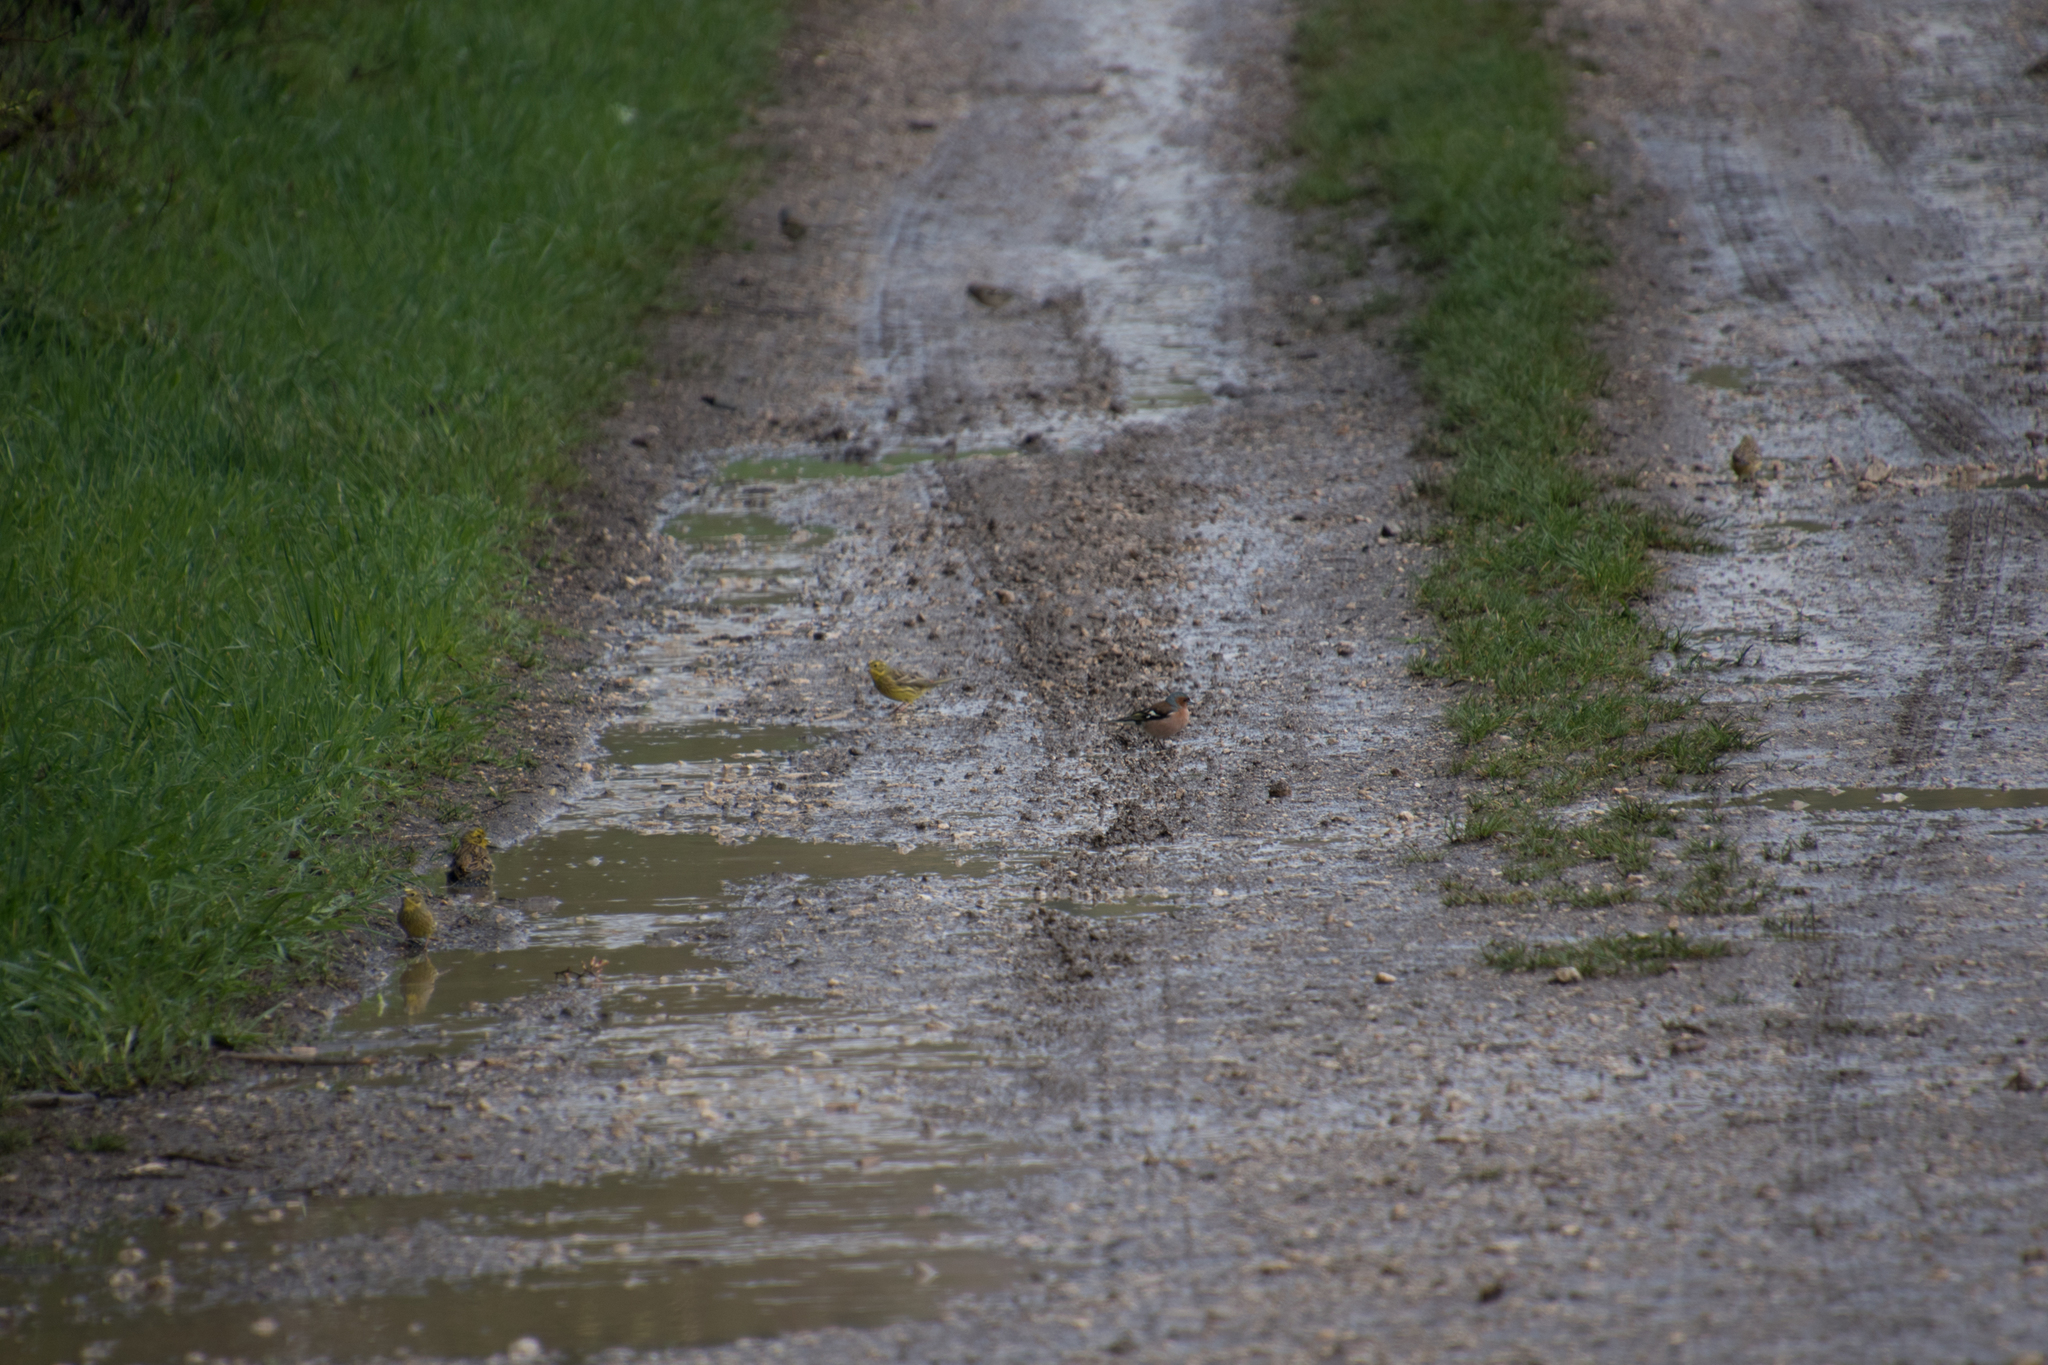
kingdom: Animalia
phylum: Chordata
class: Aves
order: Passeriformes
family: Emberizidae
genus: Emberiza
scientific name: Emberiza citrinella
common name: Yellowhammer
